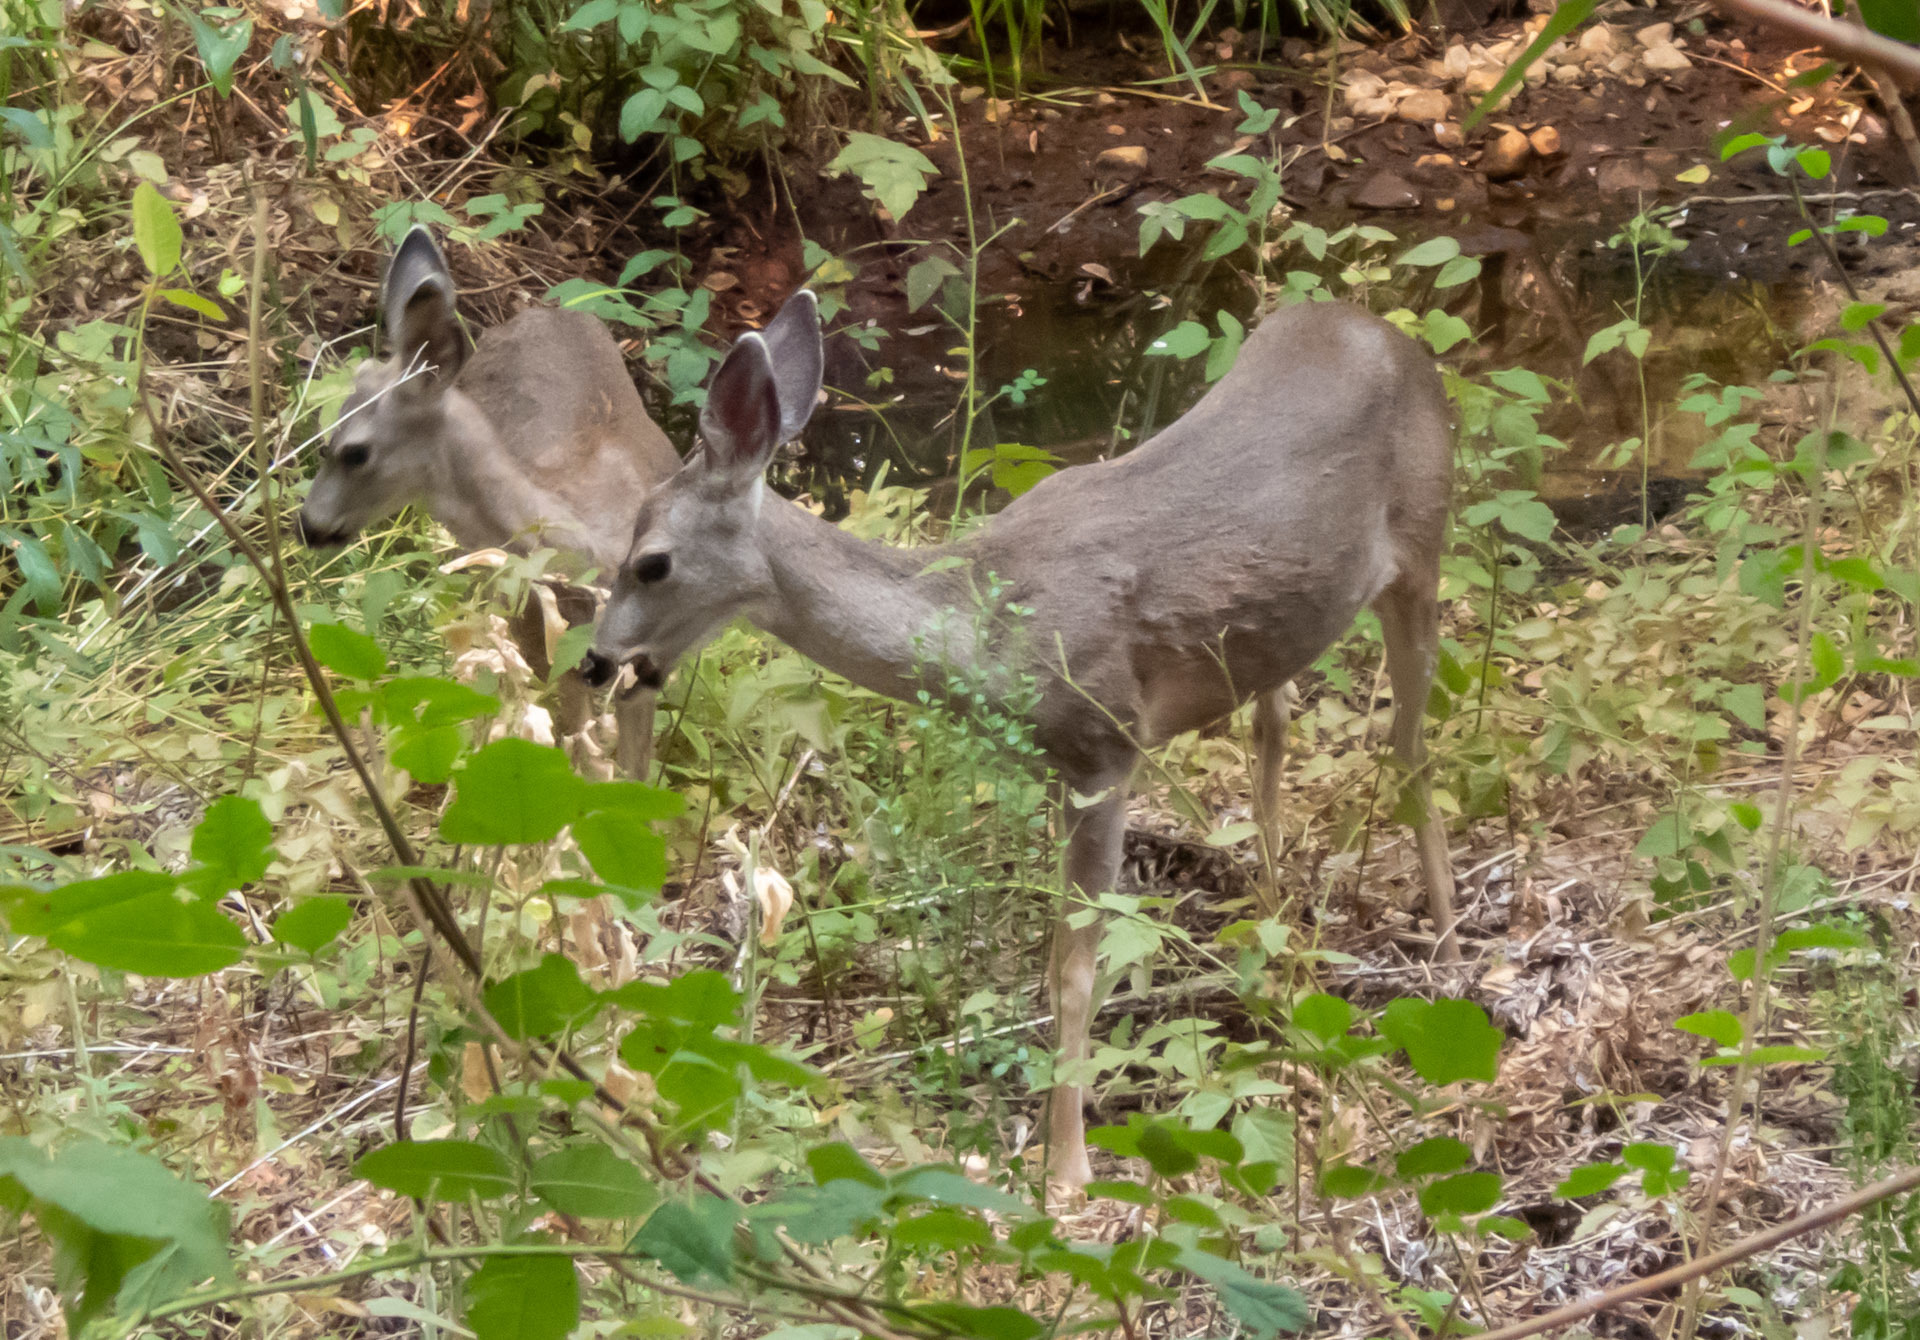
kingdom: Animalia
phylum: Chordata
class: Mammalia
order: Artiodactyla
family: Cervidae
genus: Odocoileus
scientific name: Odocoileus hemionus
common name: Mule deer
